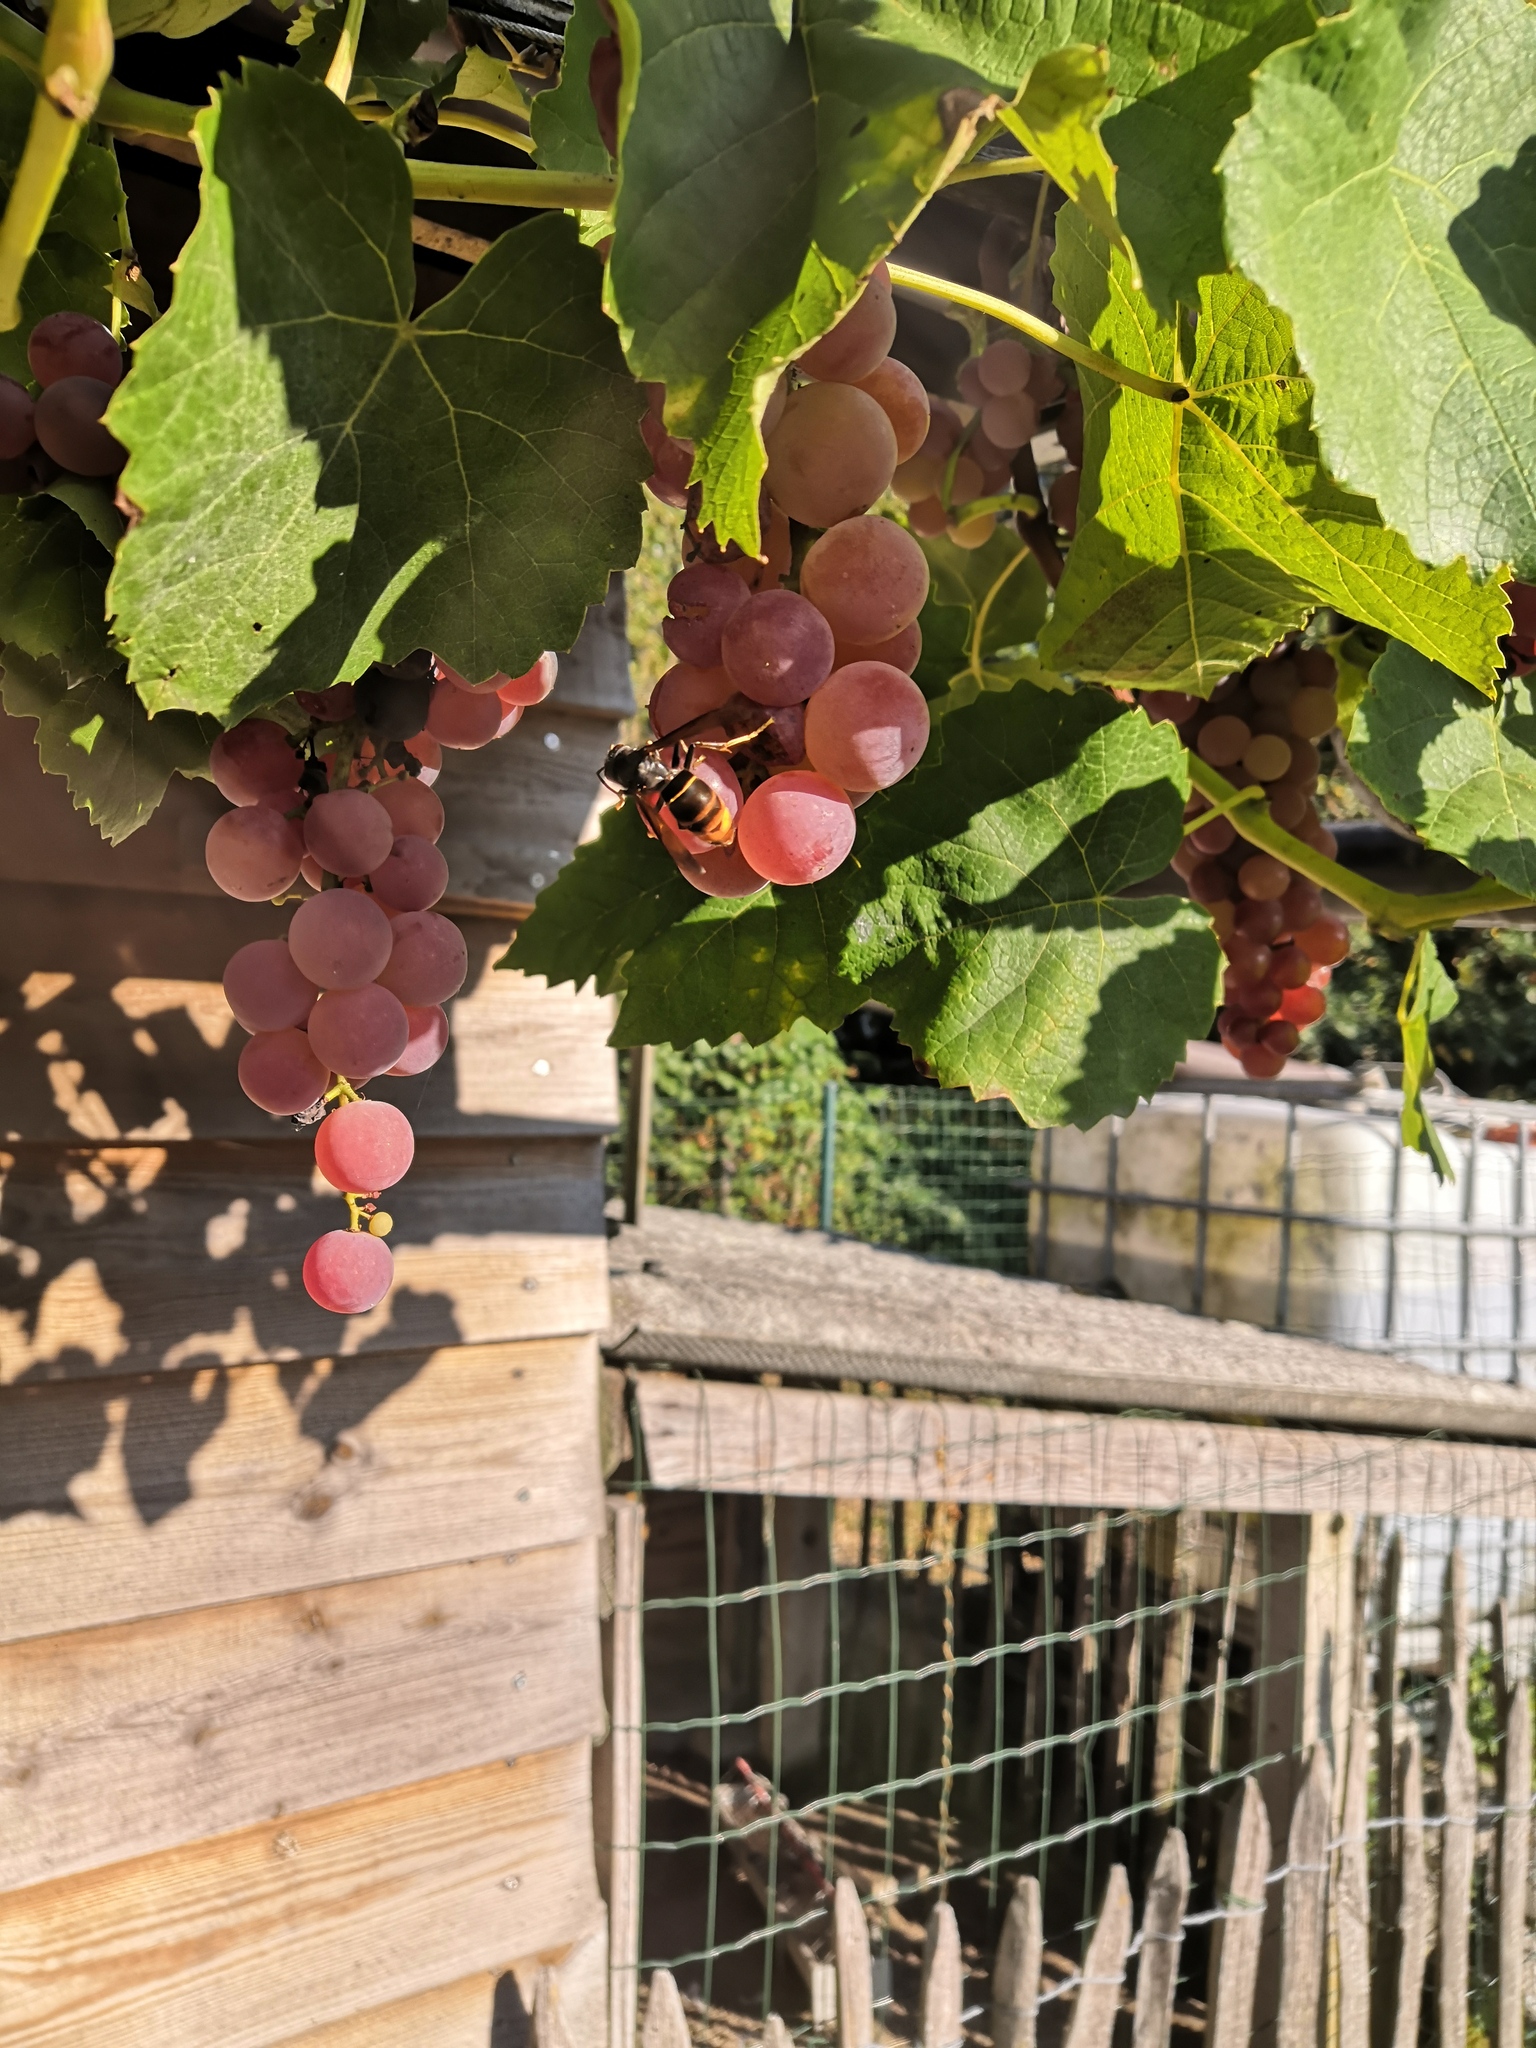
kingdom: Animalia
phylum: Arthropoda
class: Insecta
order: Hymenoptera
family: Vespidae
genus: Vespa
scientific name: Vespa velutina
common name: Asian hornet
